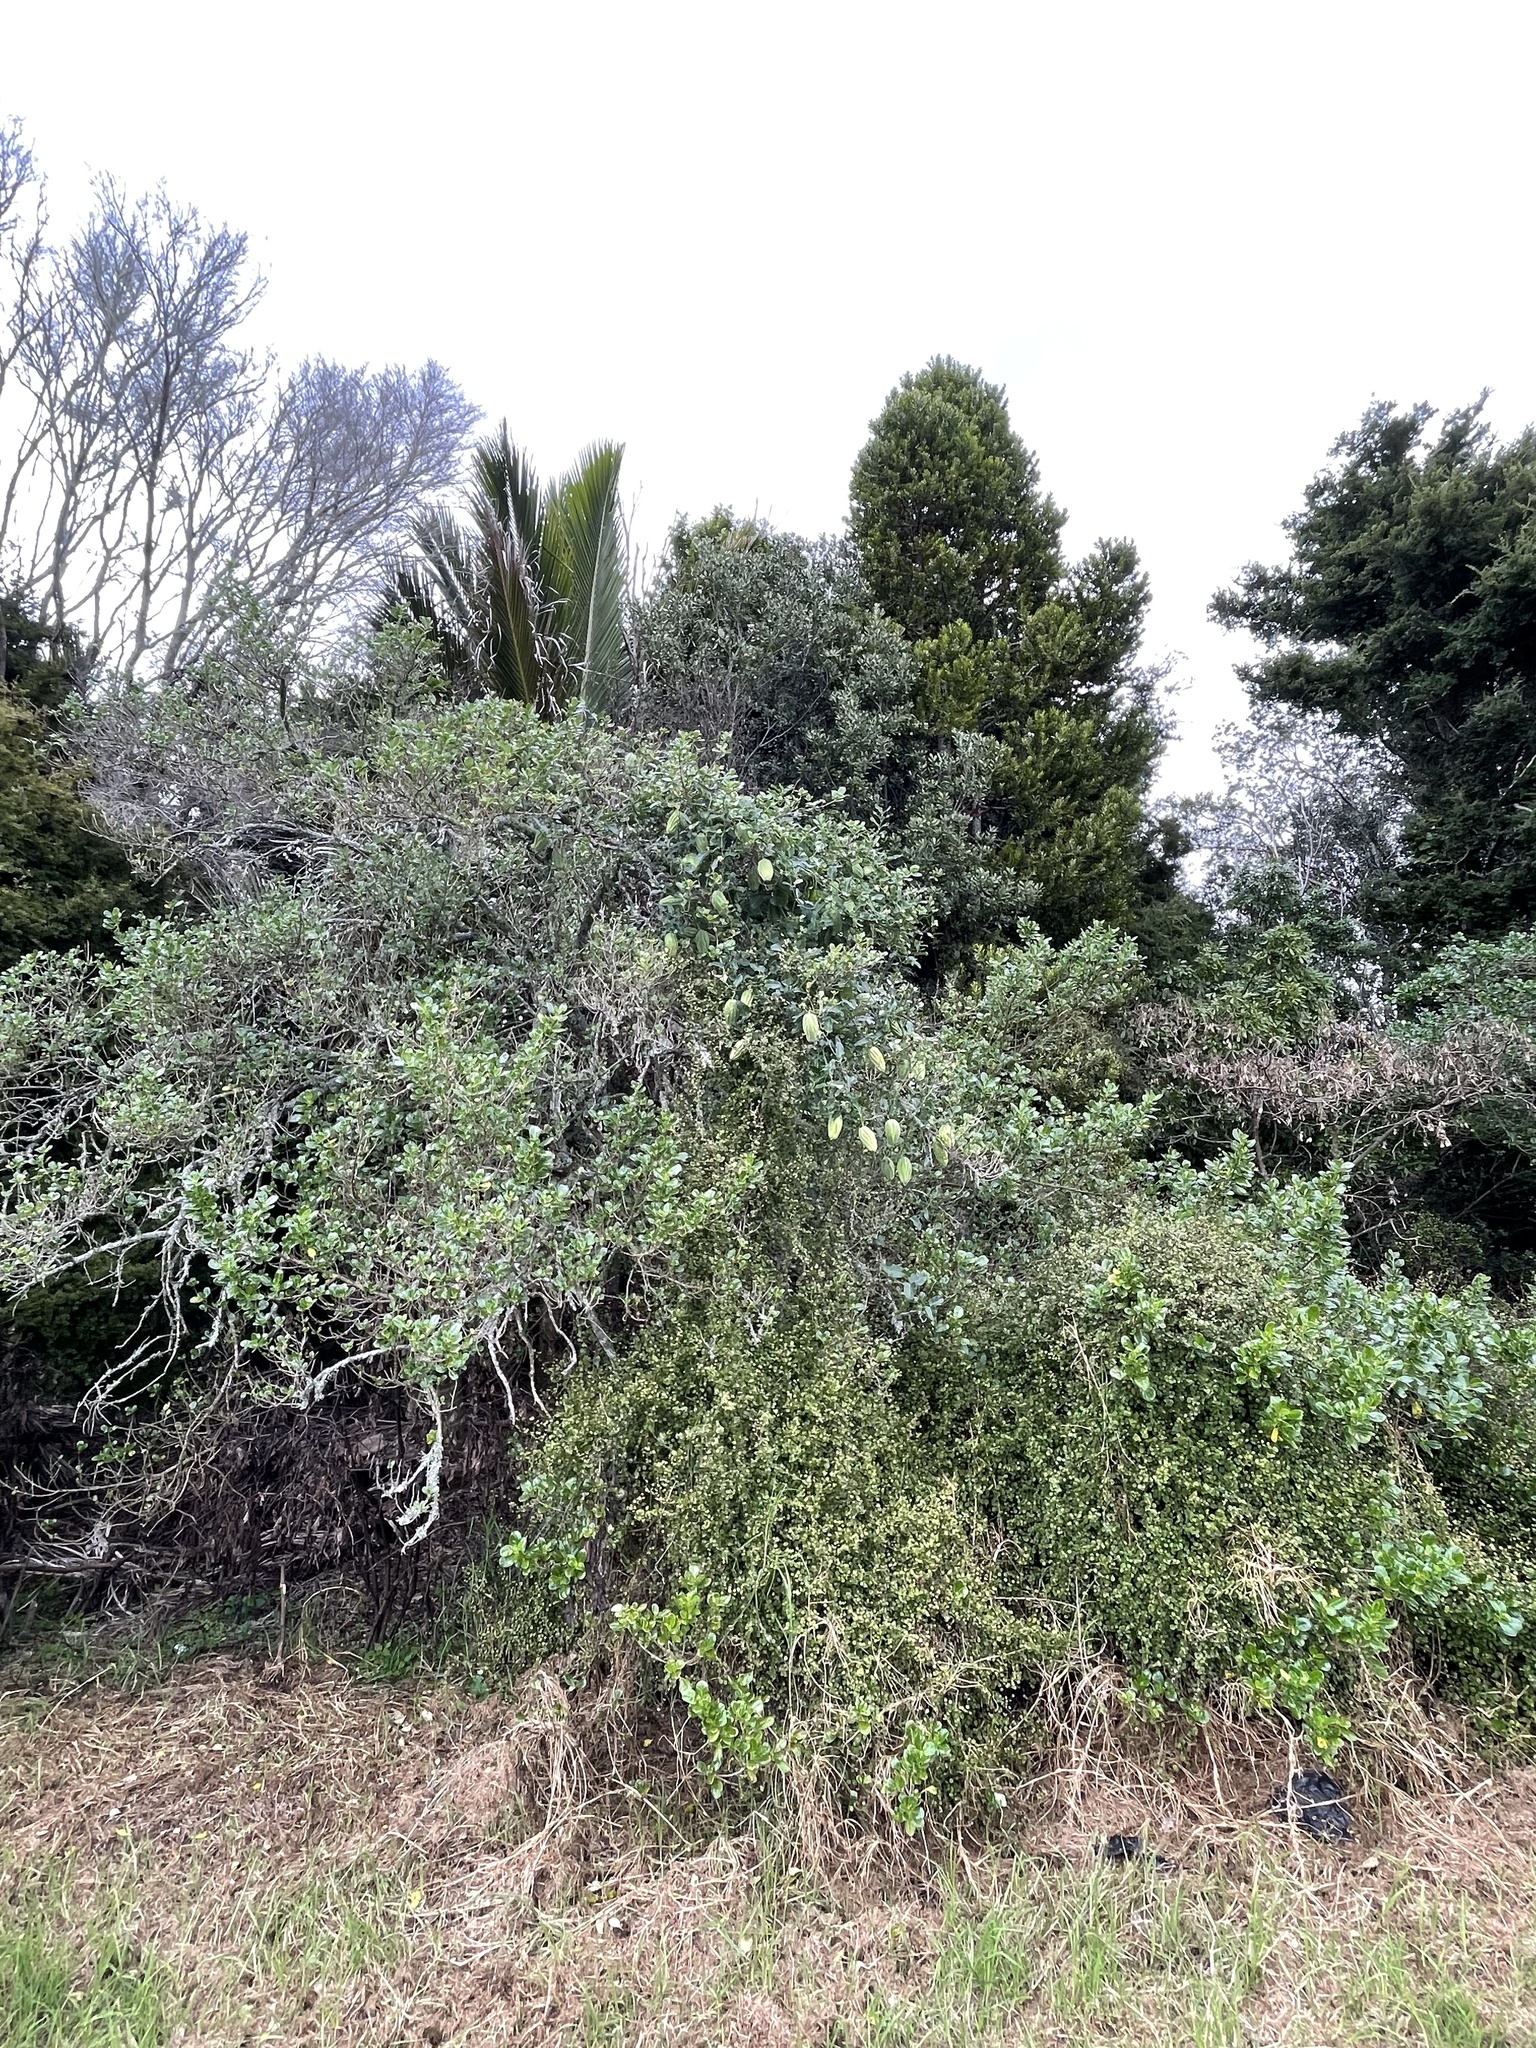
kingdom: Plantae
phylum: Tracheophyta
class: Magnoliopsida
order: Gentianales
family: Apocynaceae
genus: Araujia
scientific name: Araujia sericifera
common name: White bladderflower
